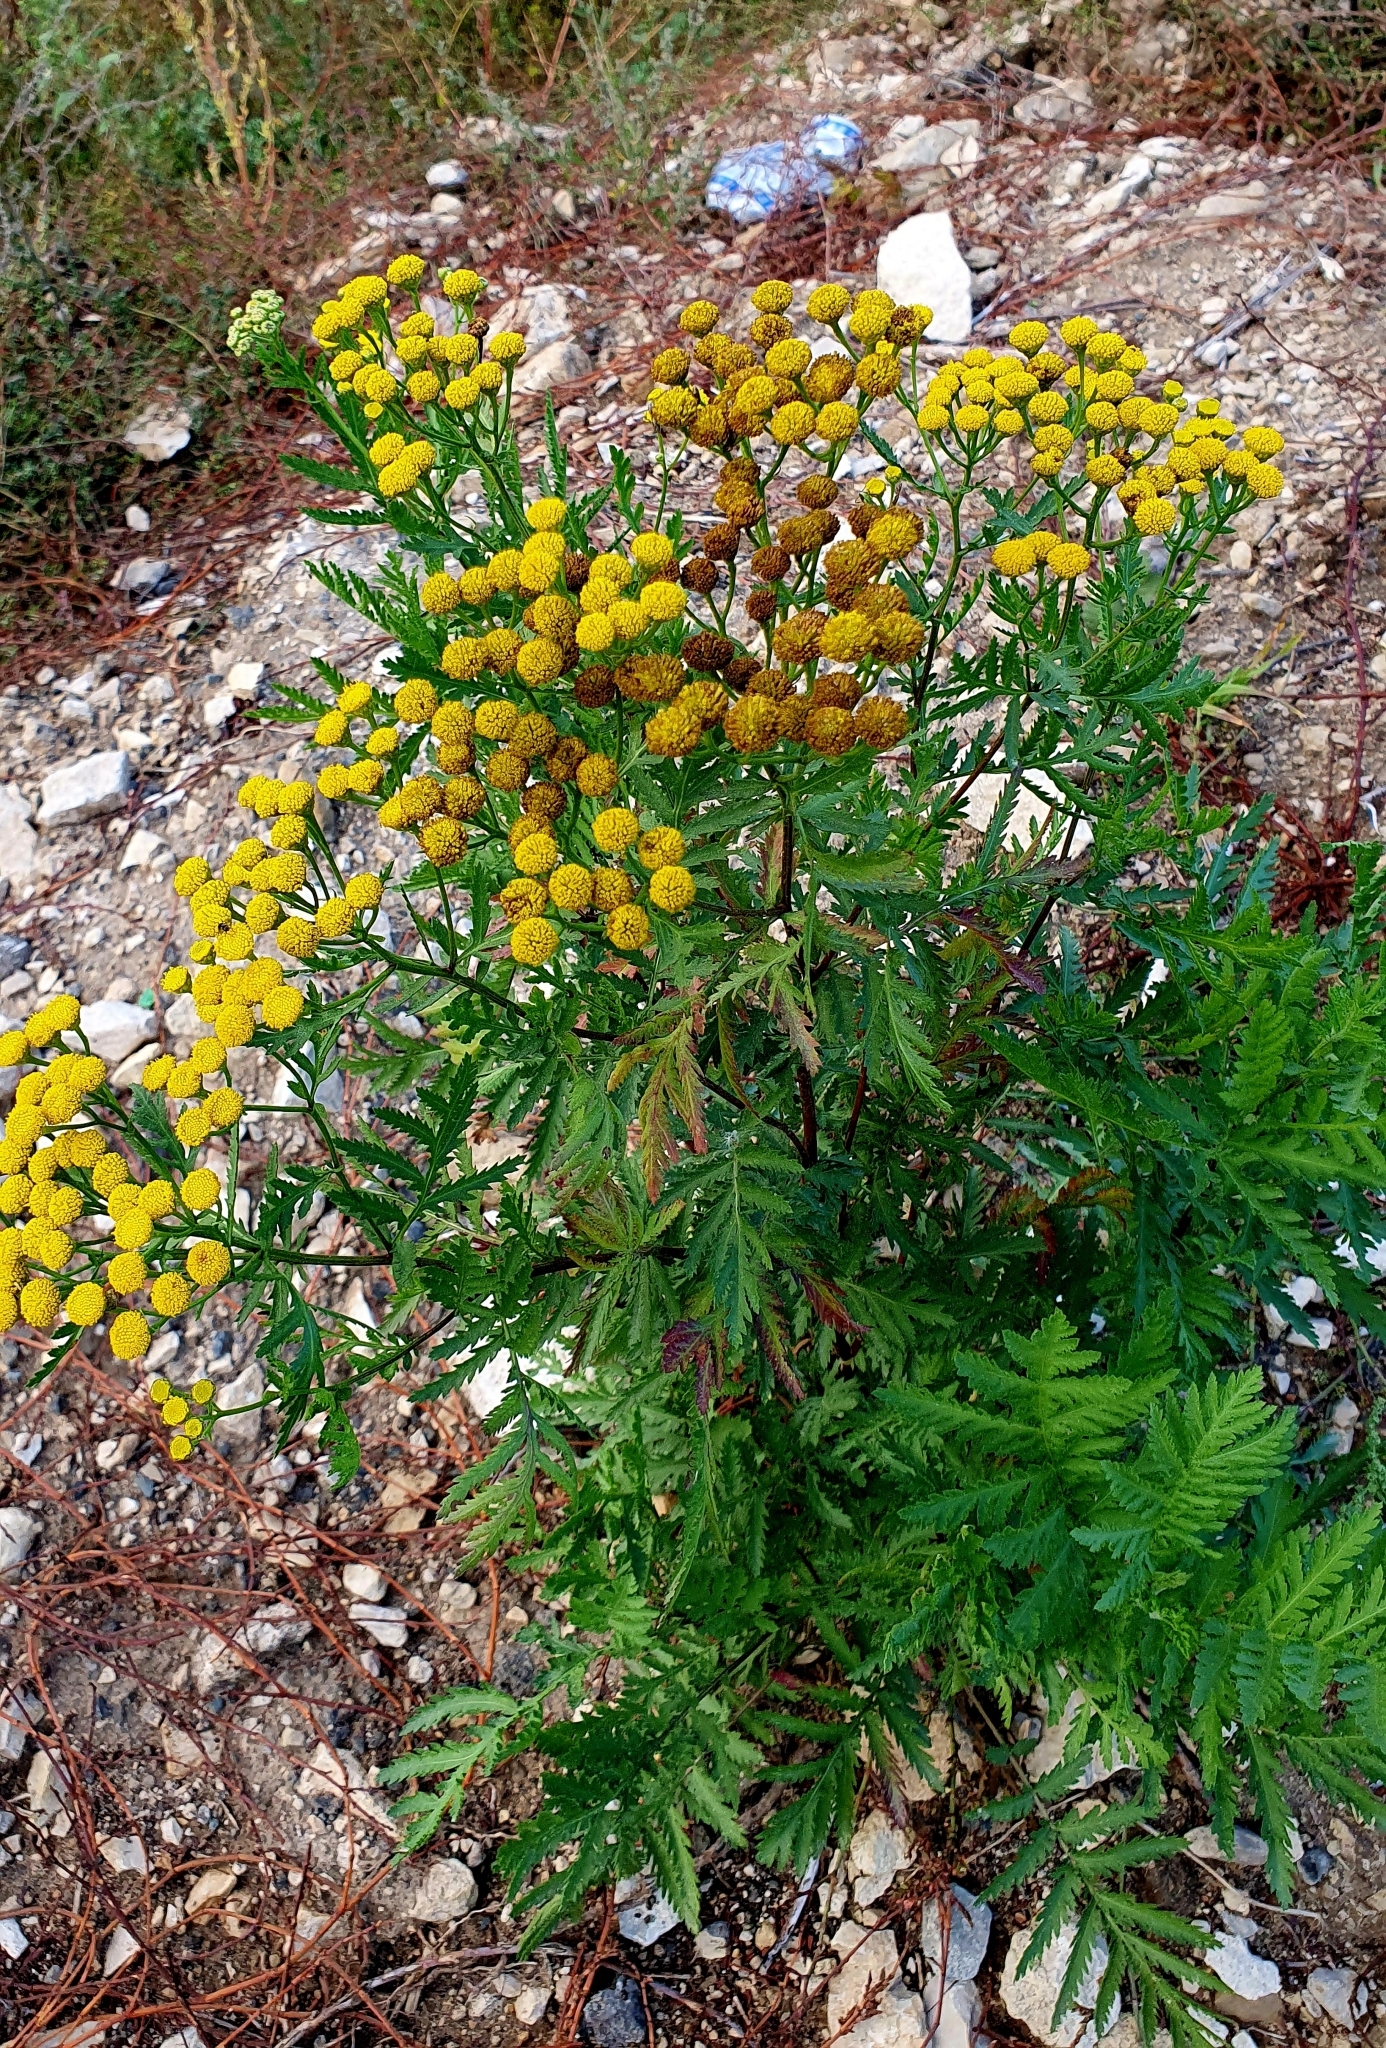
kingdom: Plantae
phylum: Tracheophyta
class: Magnoliopsida
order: Asterales
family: Asteraceae
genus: Tanacetum
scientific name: Tanacetum vulgare
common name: Common tansy
